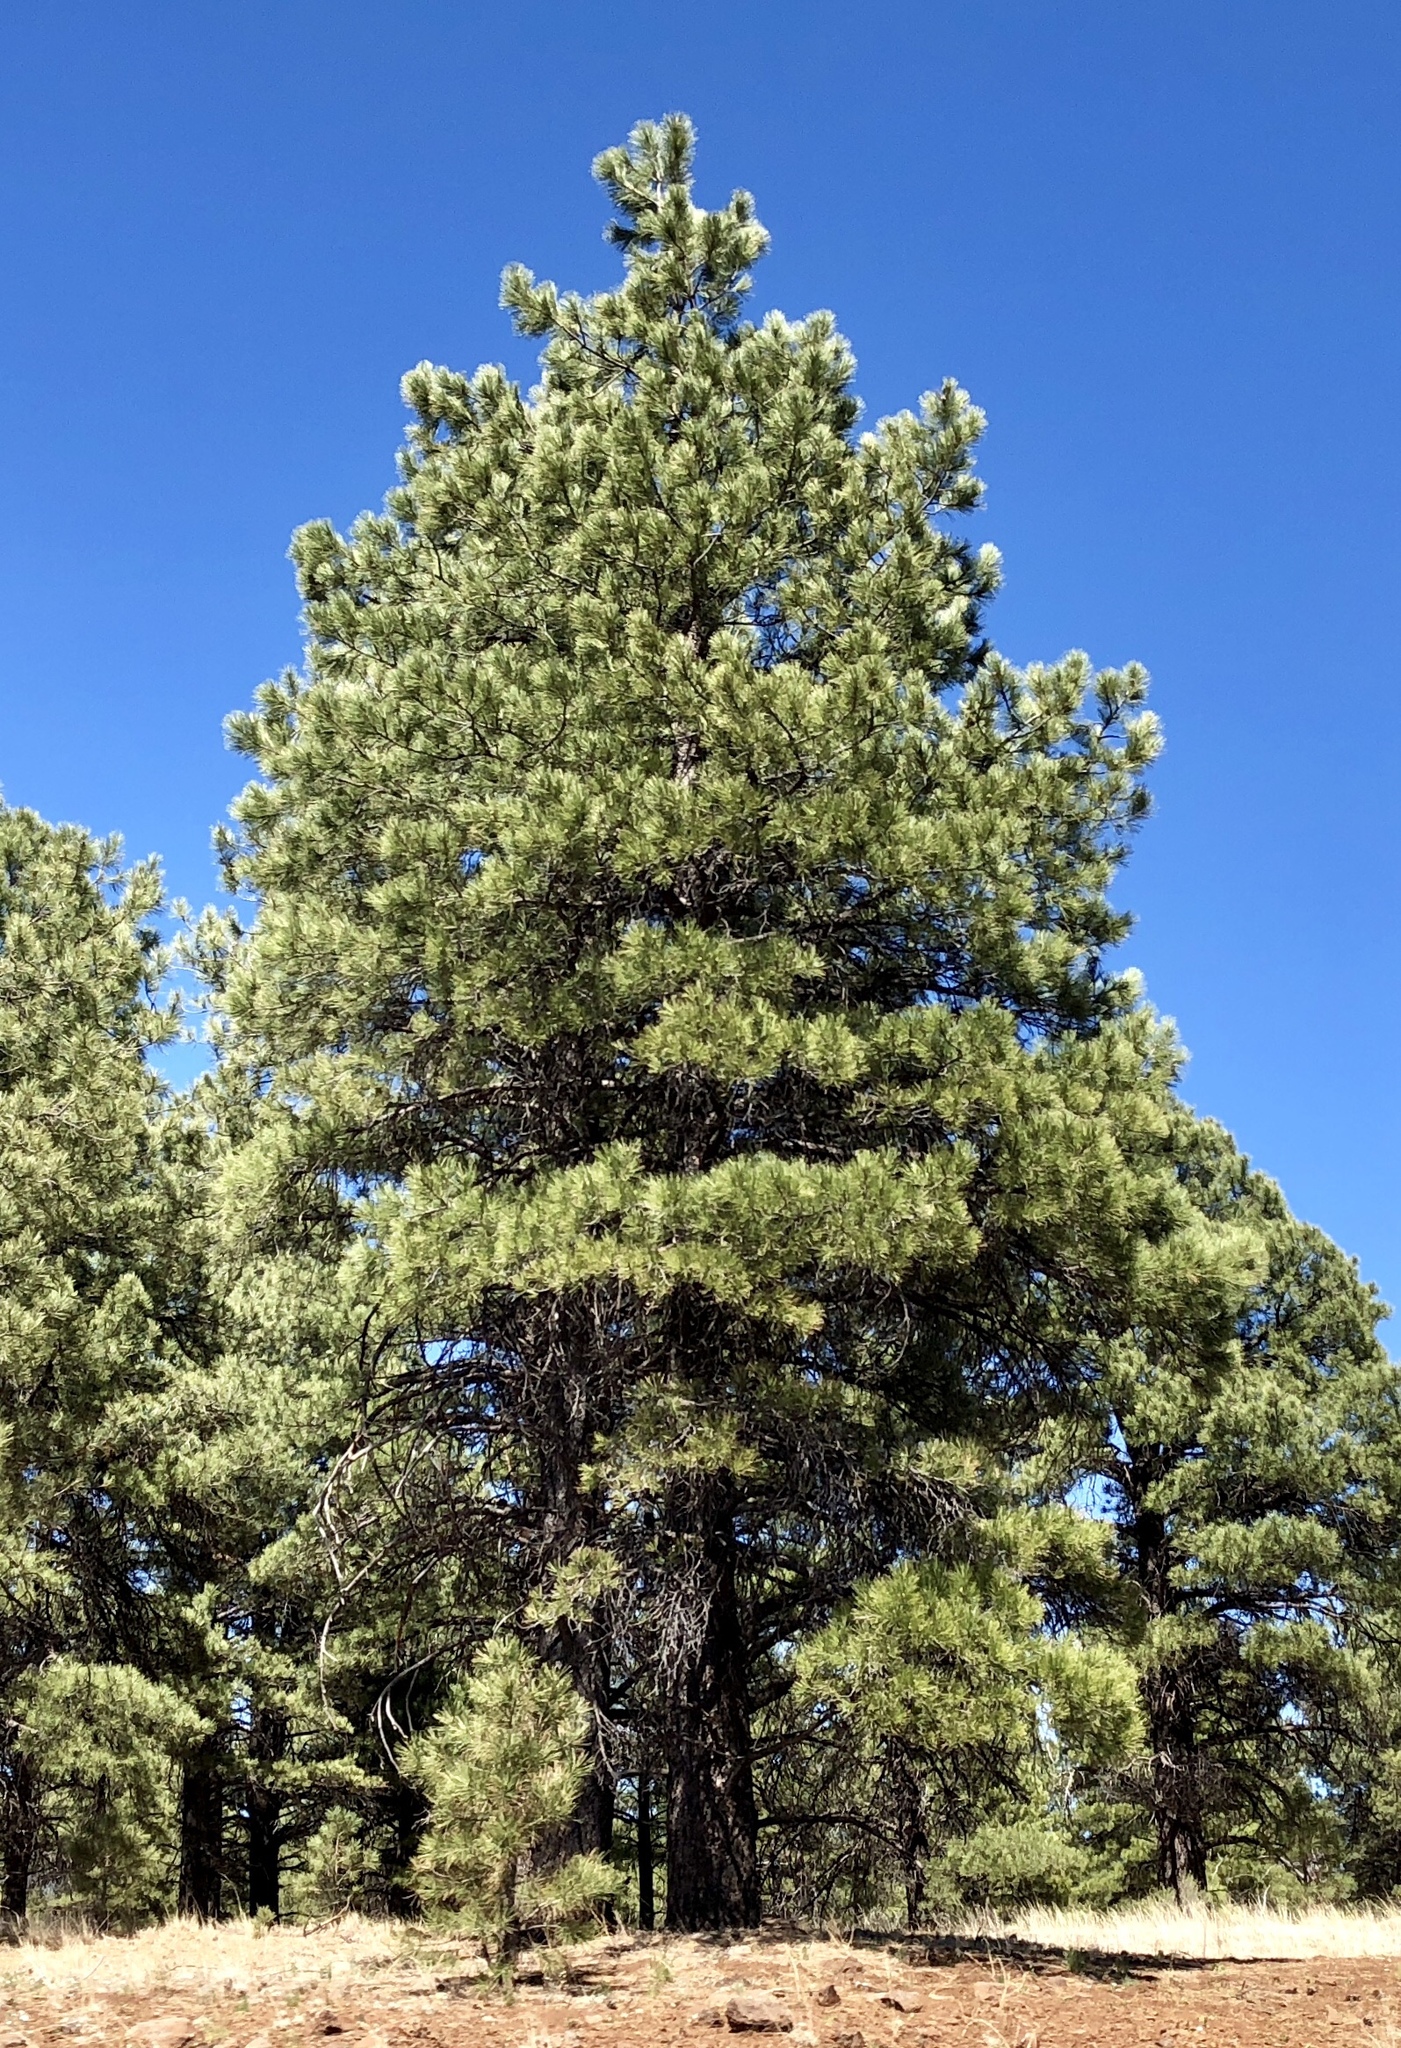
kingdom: Plantae
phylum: Tracheophyta
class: Pinopsida
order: Pinales
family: Pinaceae
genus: Pinus
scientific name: Pinus ponderosa
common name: Western yellow-pine
